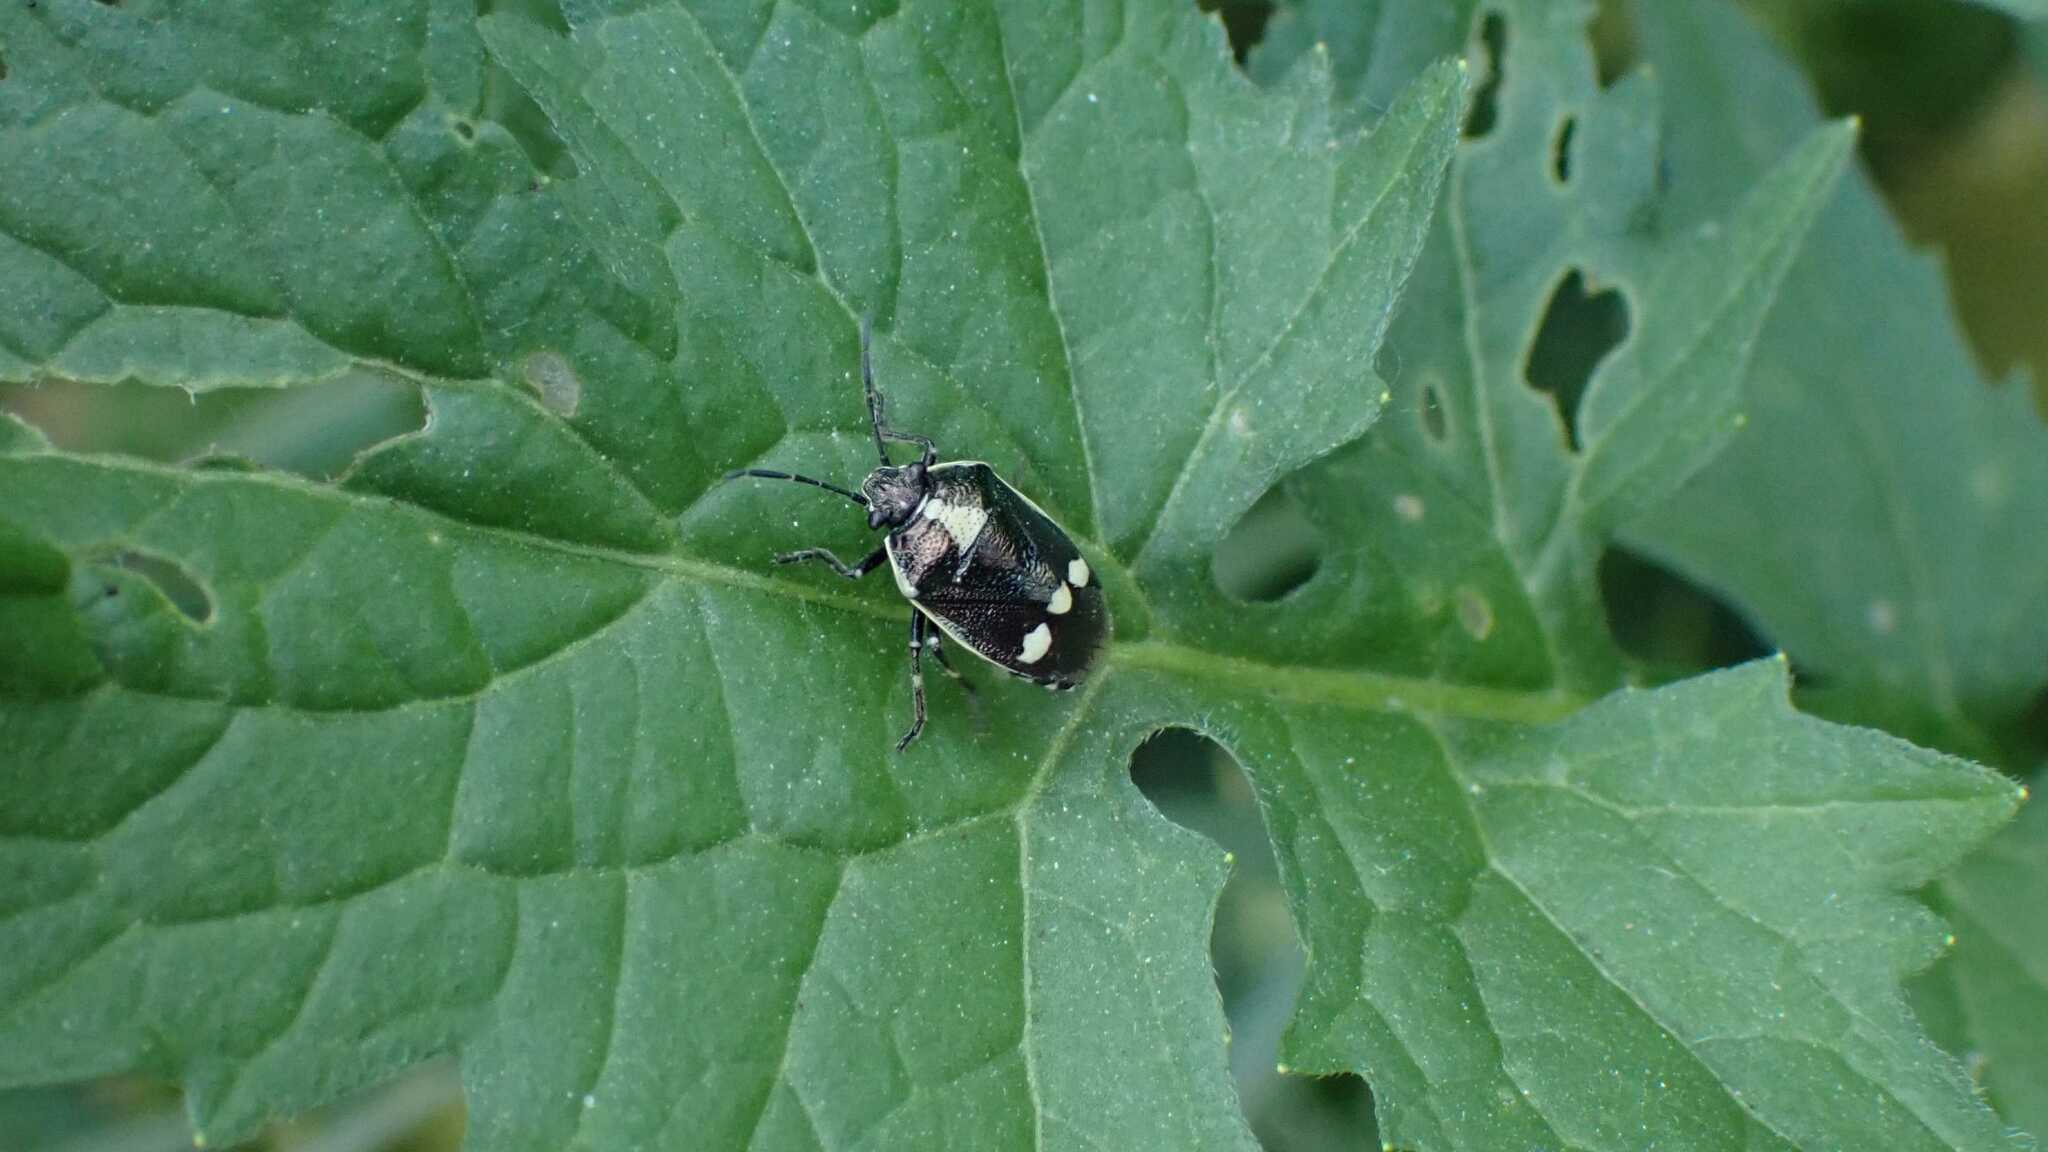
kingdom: Animalia
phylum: Arthropoda
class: Insecta
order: Hemiptera
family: Pentatomidae
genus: Eurydema
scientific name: Eurydema oleracea
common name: Cabbage bug
